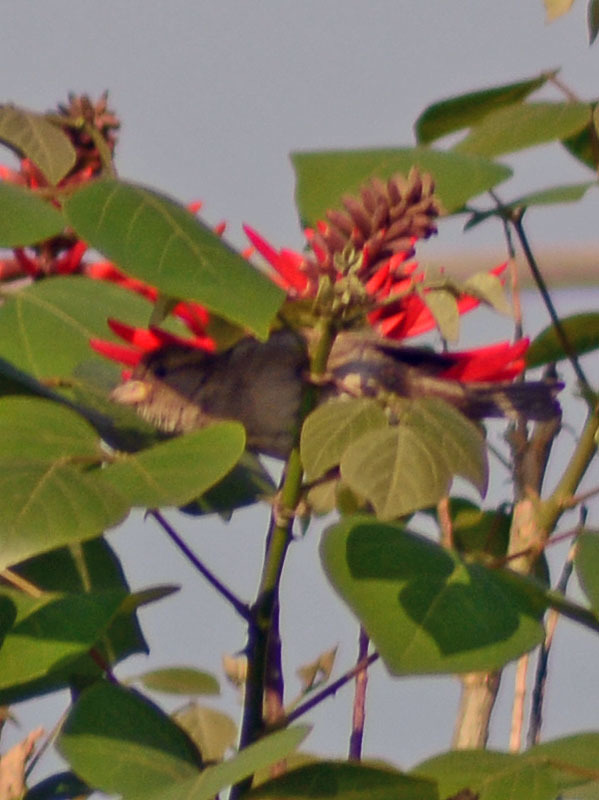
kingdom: Animalia
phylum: Chordata
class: Aves
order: Passeriformes
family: Passeridae
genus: Passer
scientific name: Passer domesticus
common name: House sparrow
